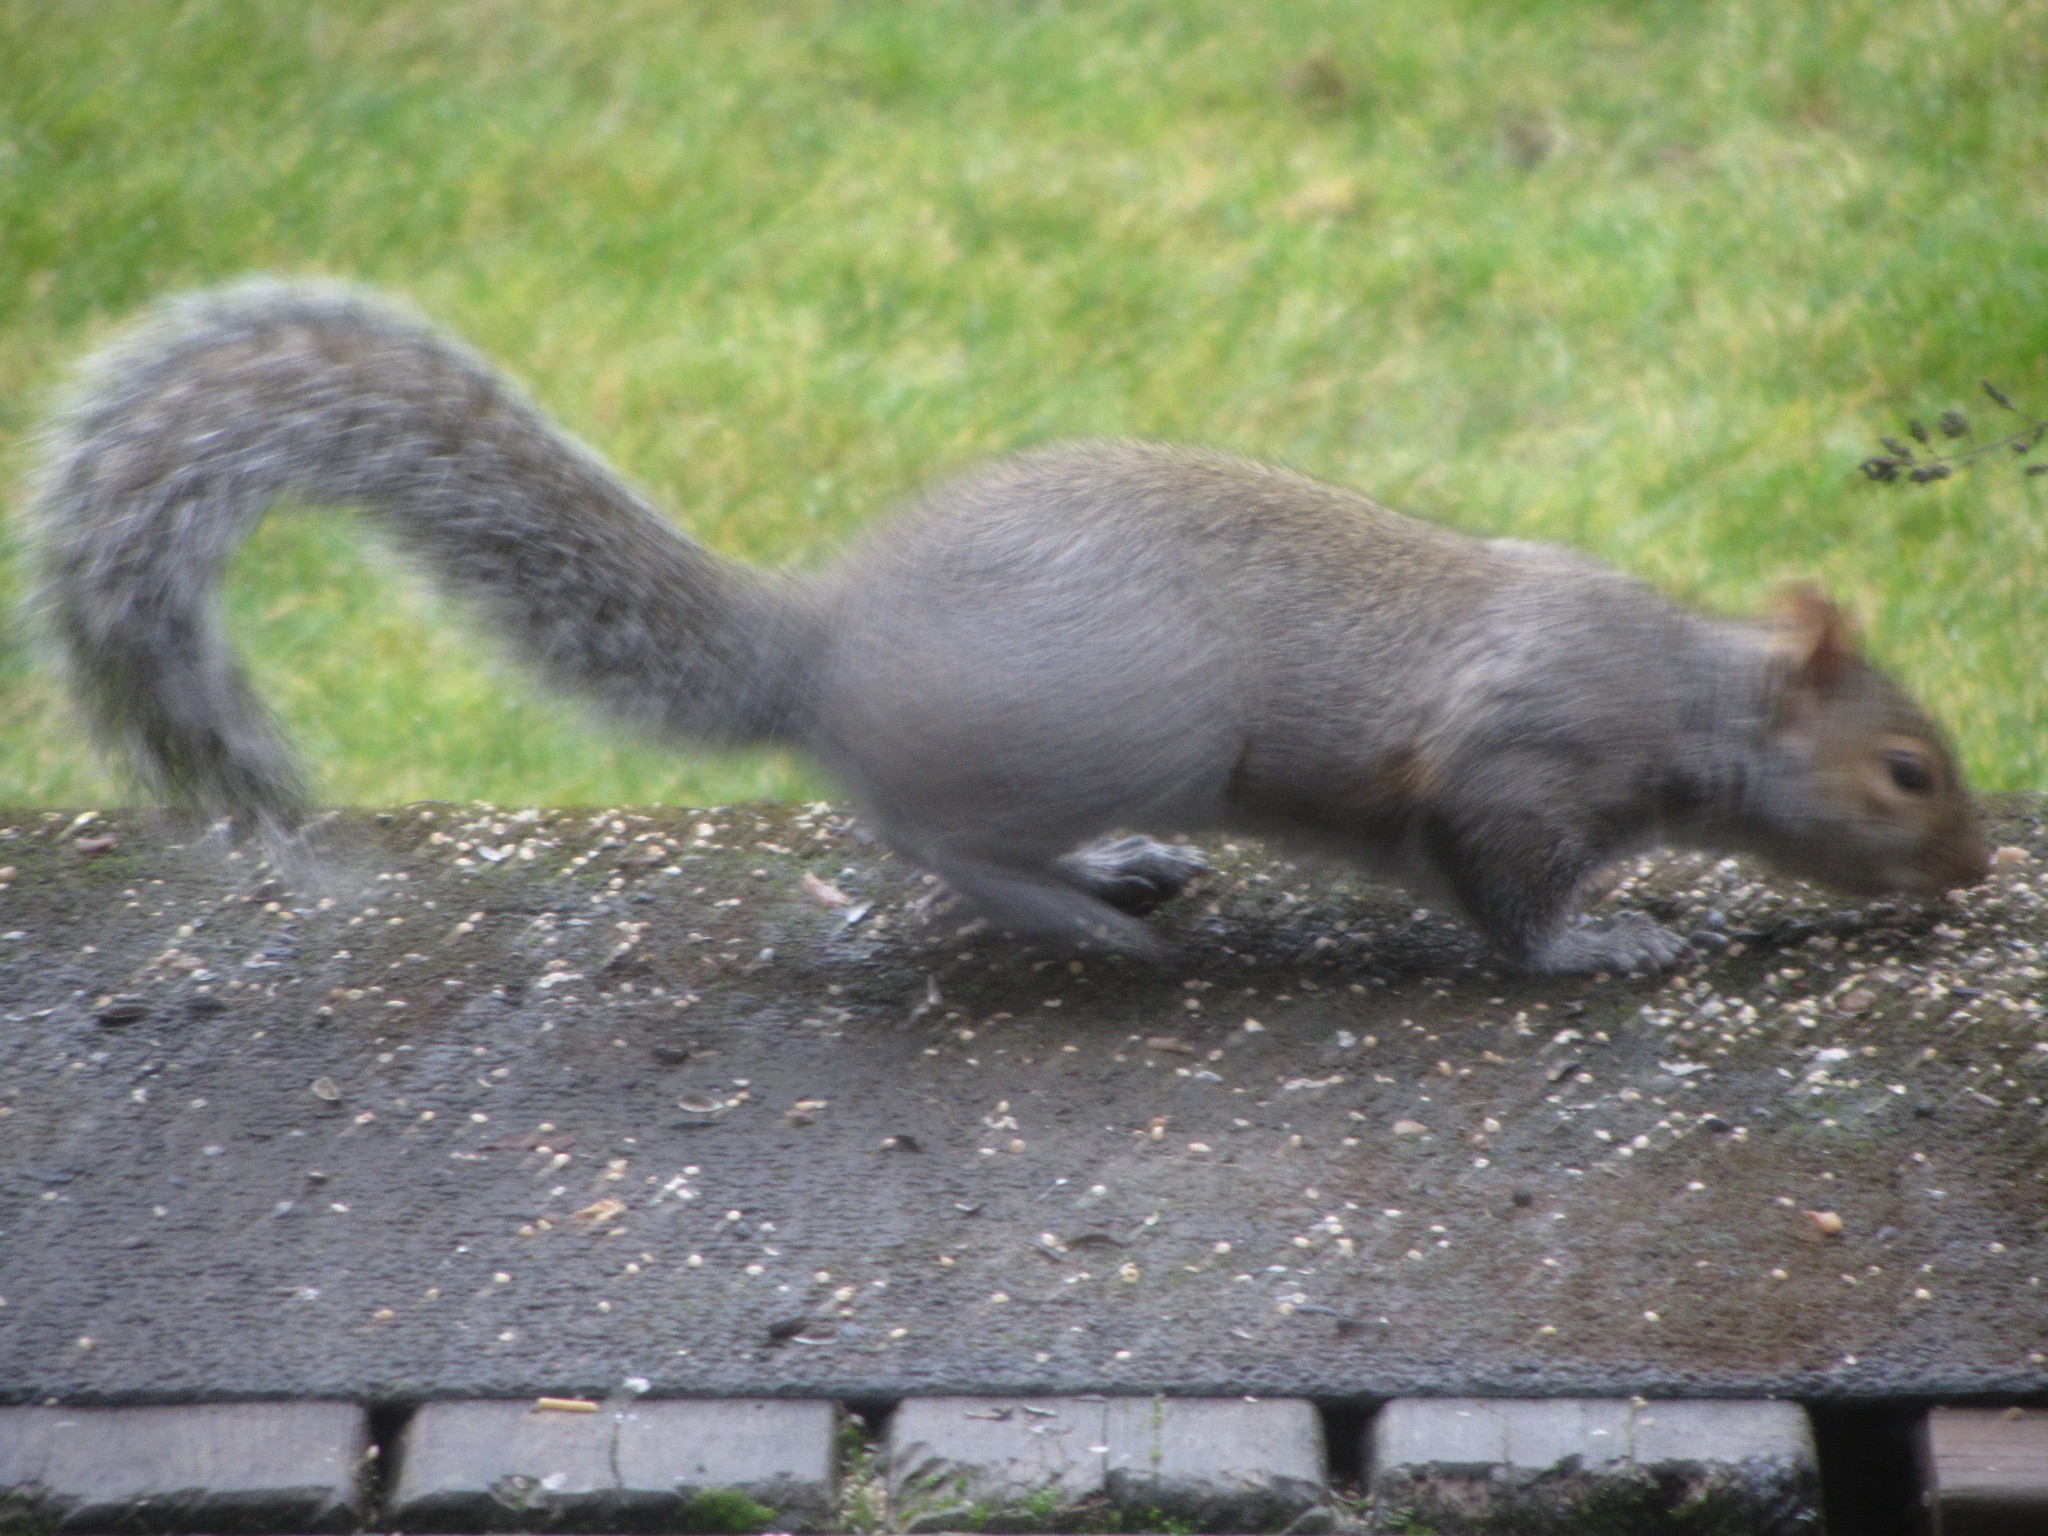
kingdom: Animalia
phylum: Chordata
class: Mammalia
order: Rodentia
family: Sciuridae
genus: Sciurus
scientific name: Sciurus carolinensis
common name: Eastern gray squirrel
